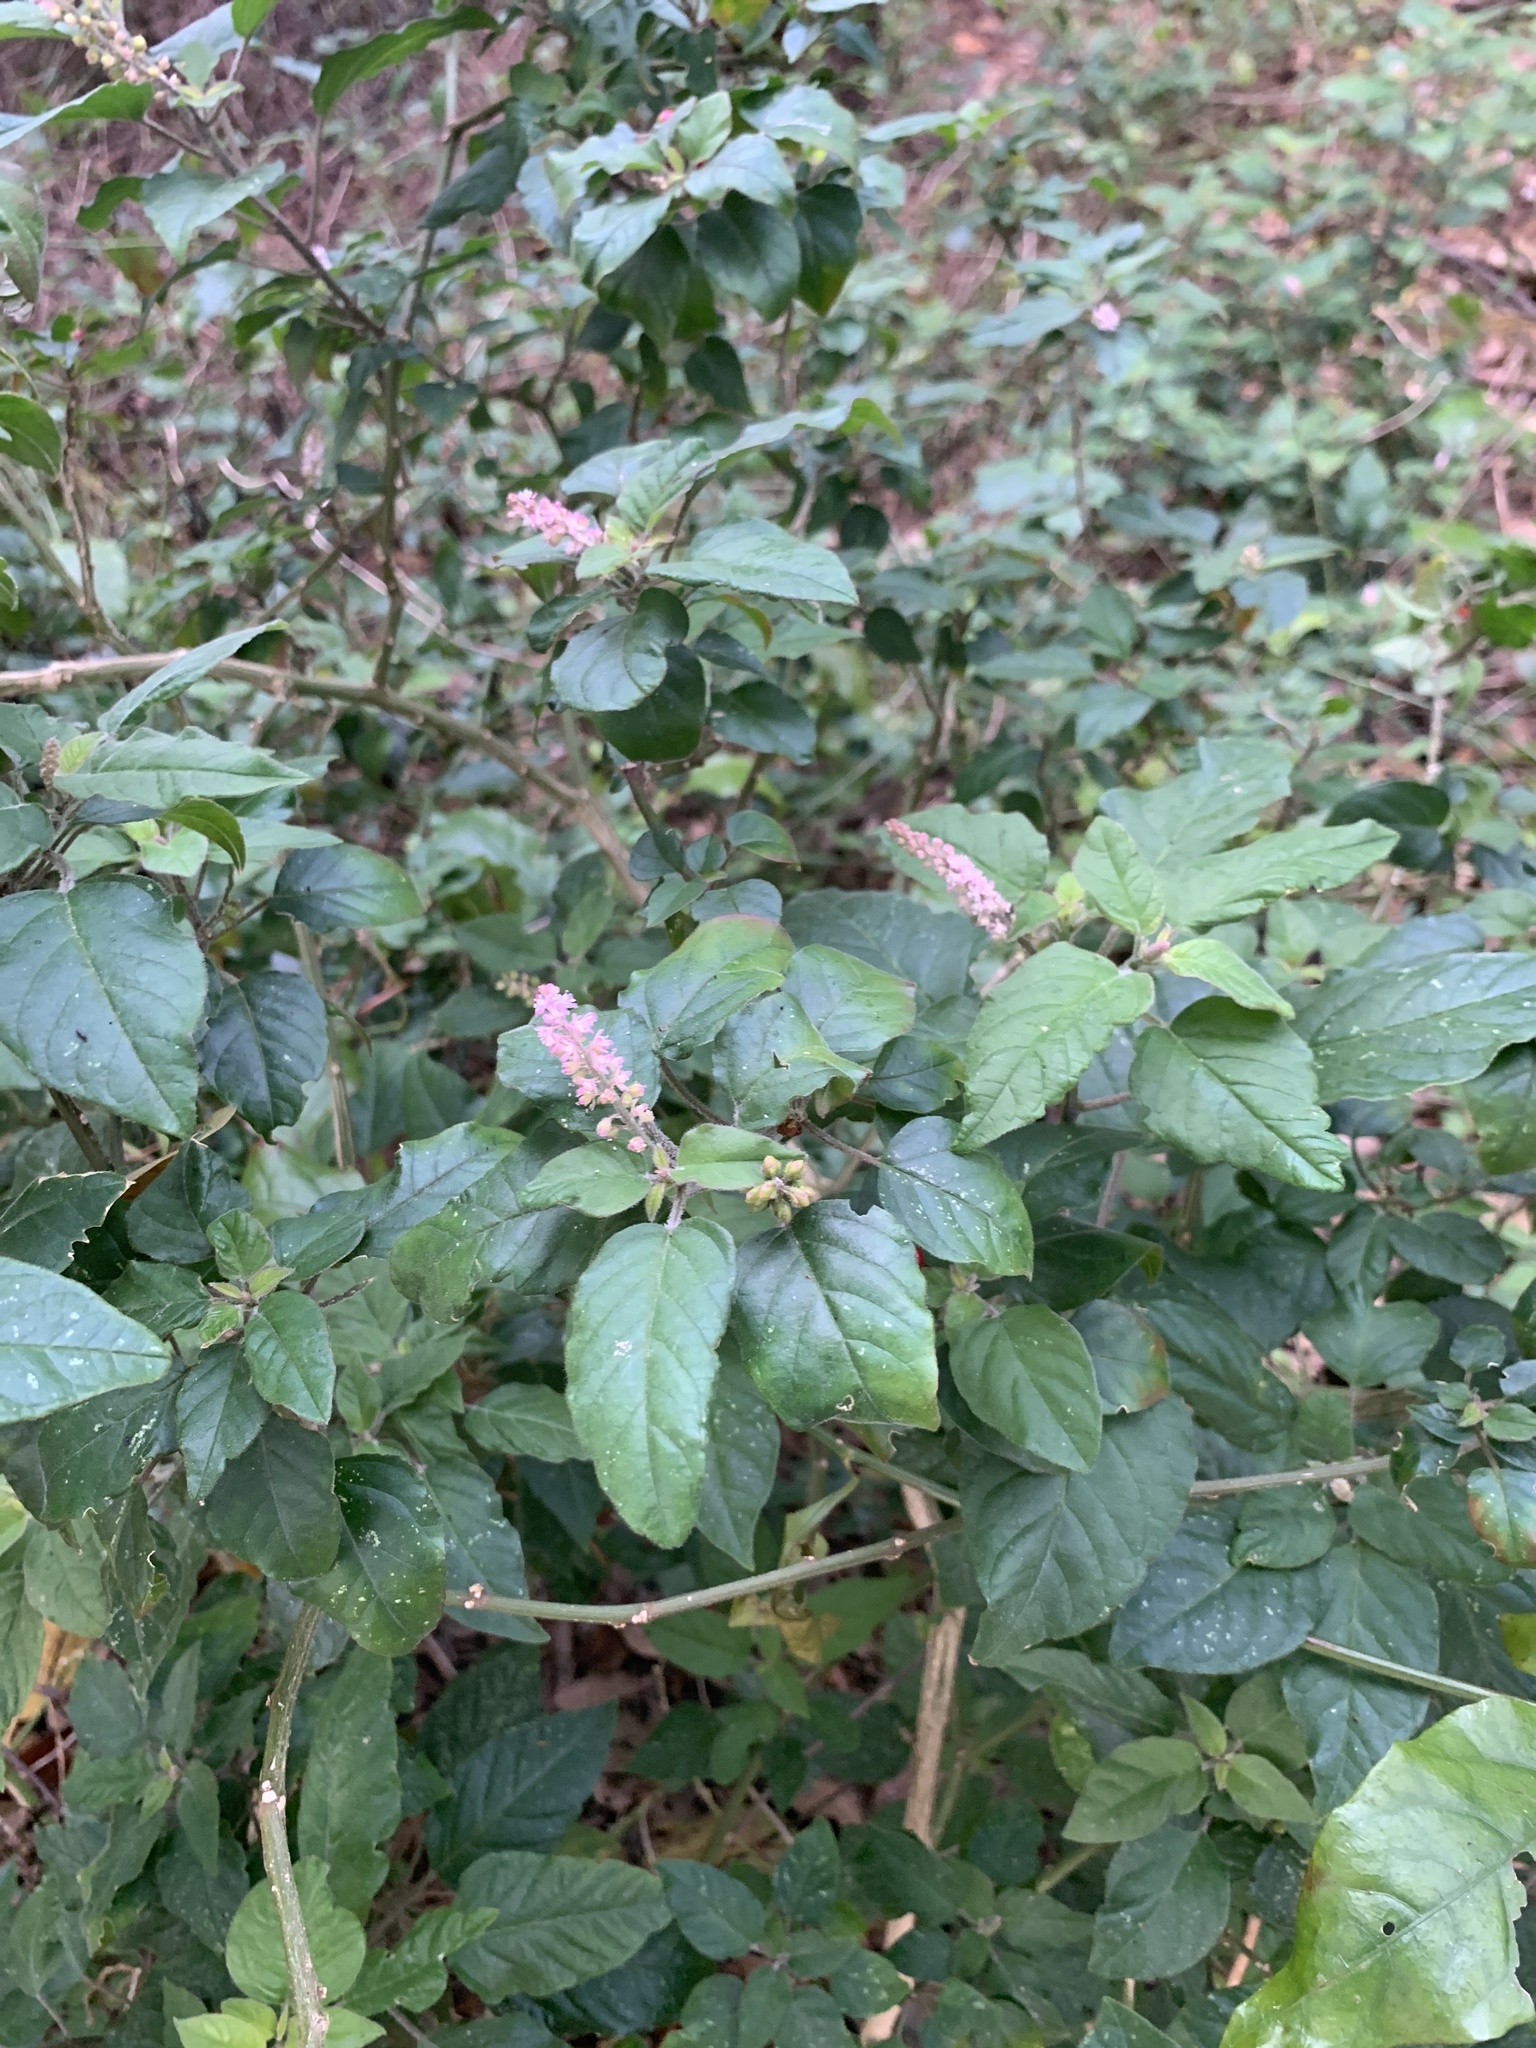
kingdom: Plantae
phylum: Tracheophyta
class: Magnoliopsida
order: Caryophyllales
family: Phytolaccaceae
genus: Rivina
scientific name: Rivina humilis
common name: Rougeplant
